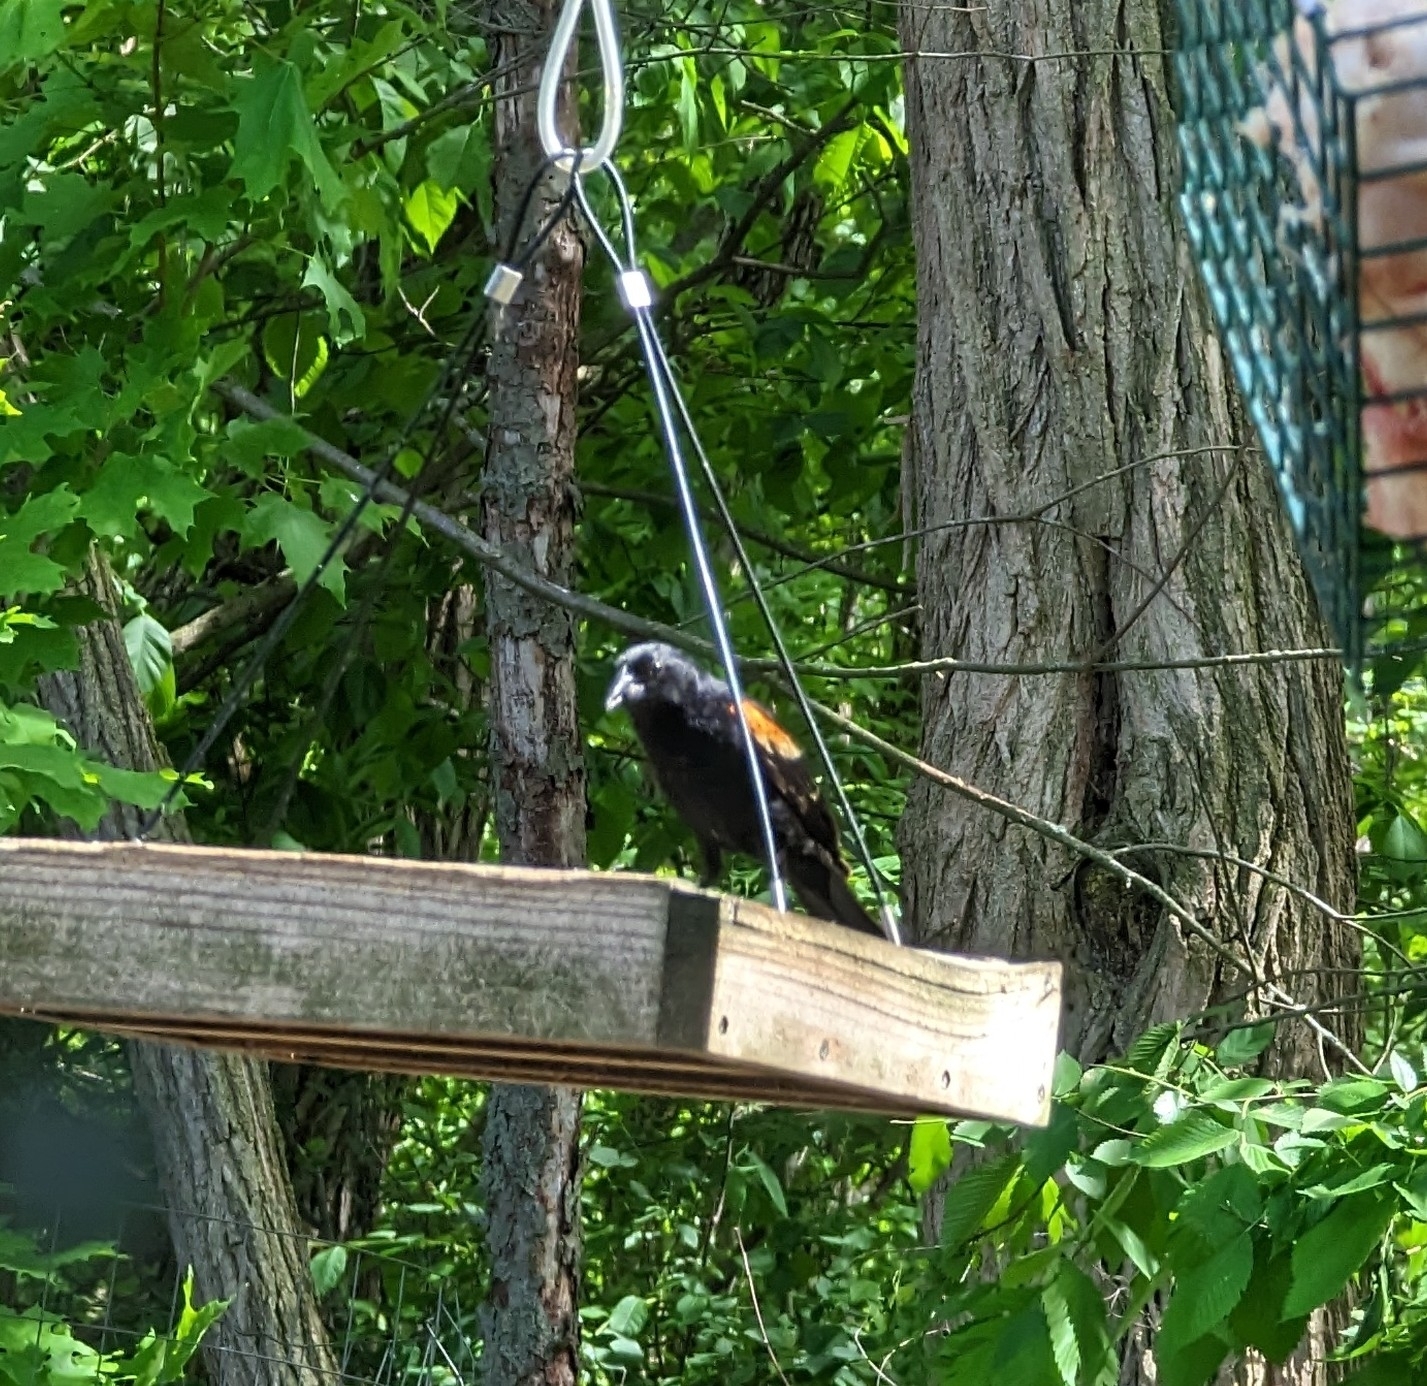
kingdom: Animalia
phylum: Chordata
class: Aves
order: Passeriformes
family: Icteridae
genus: Agelaius
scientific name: Agelaius phoeniceus
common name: Red-winged blackbird
